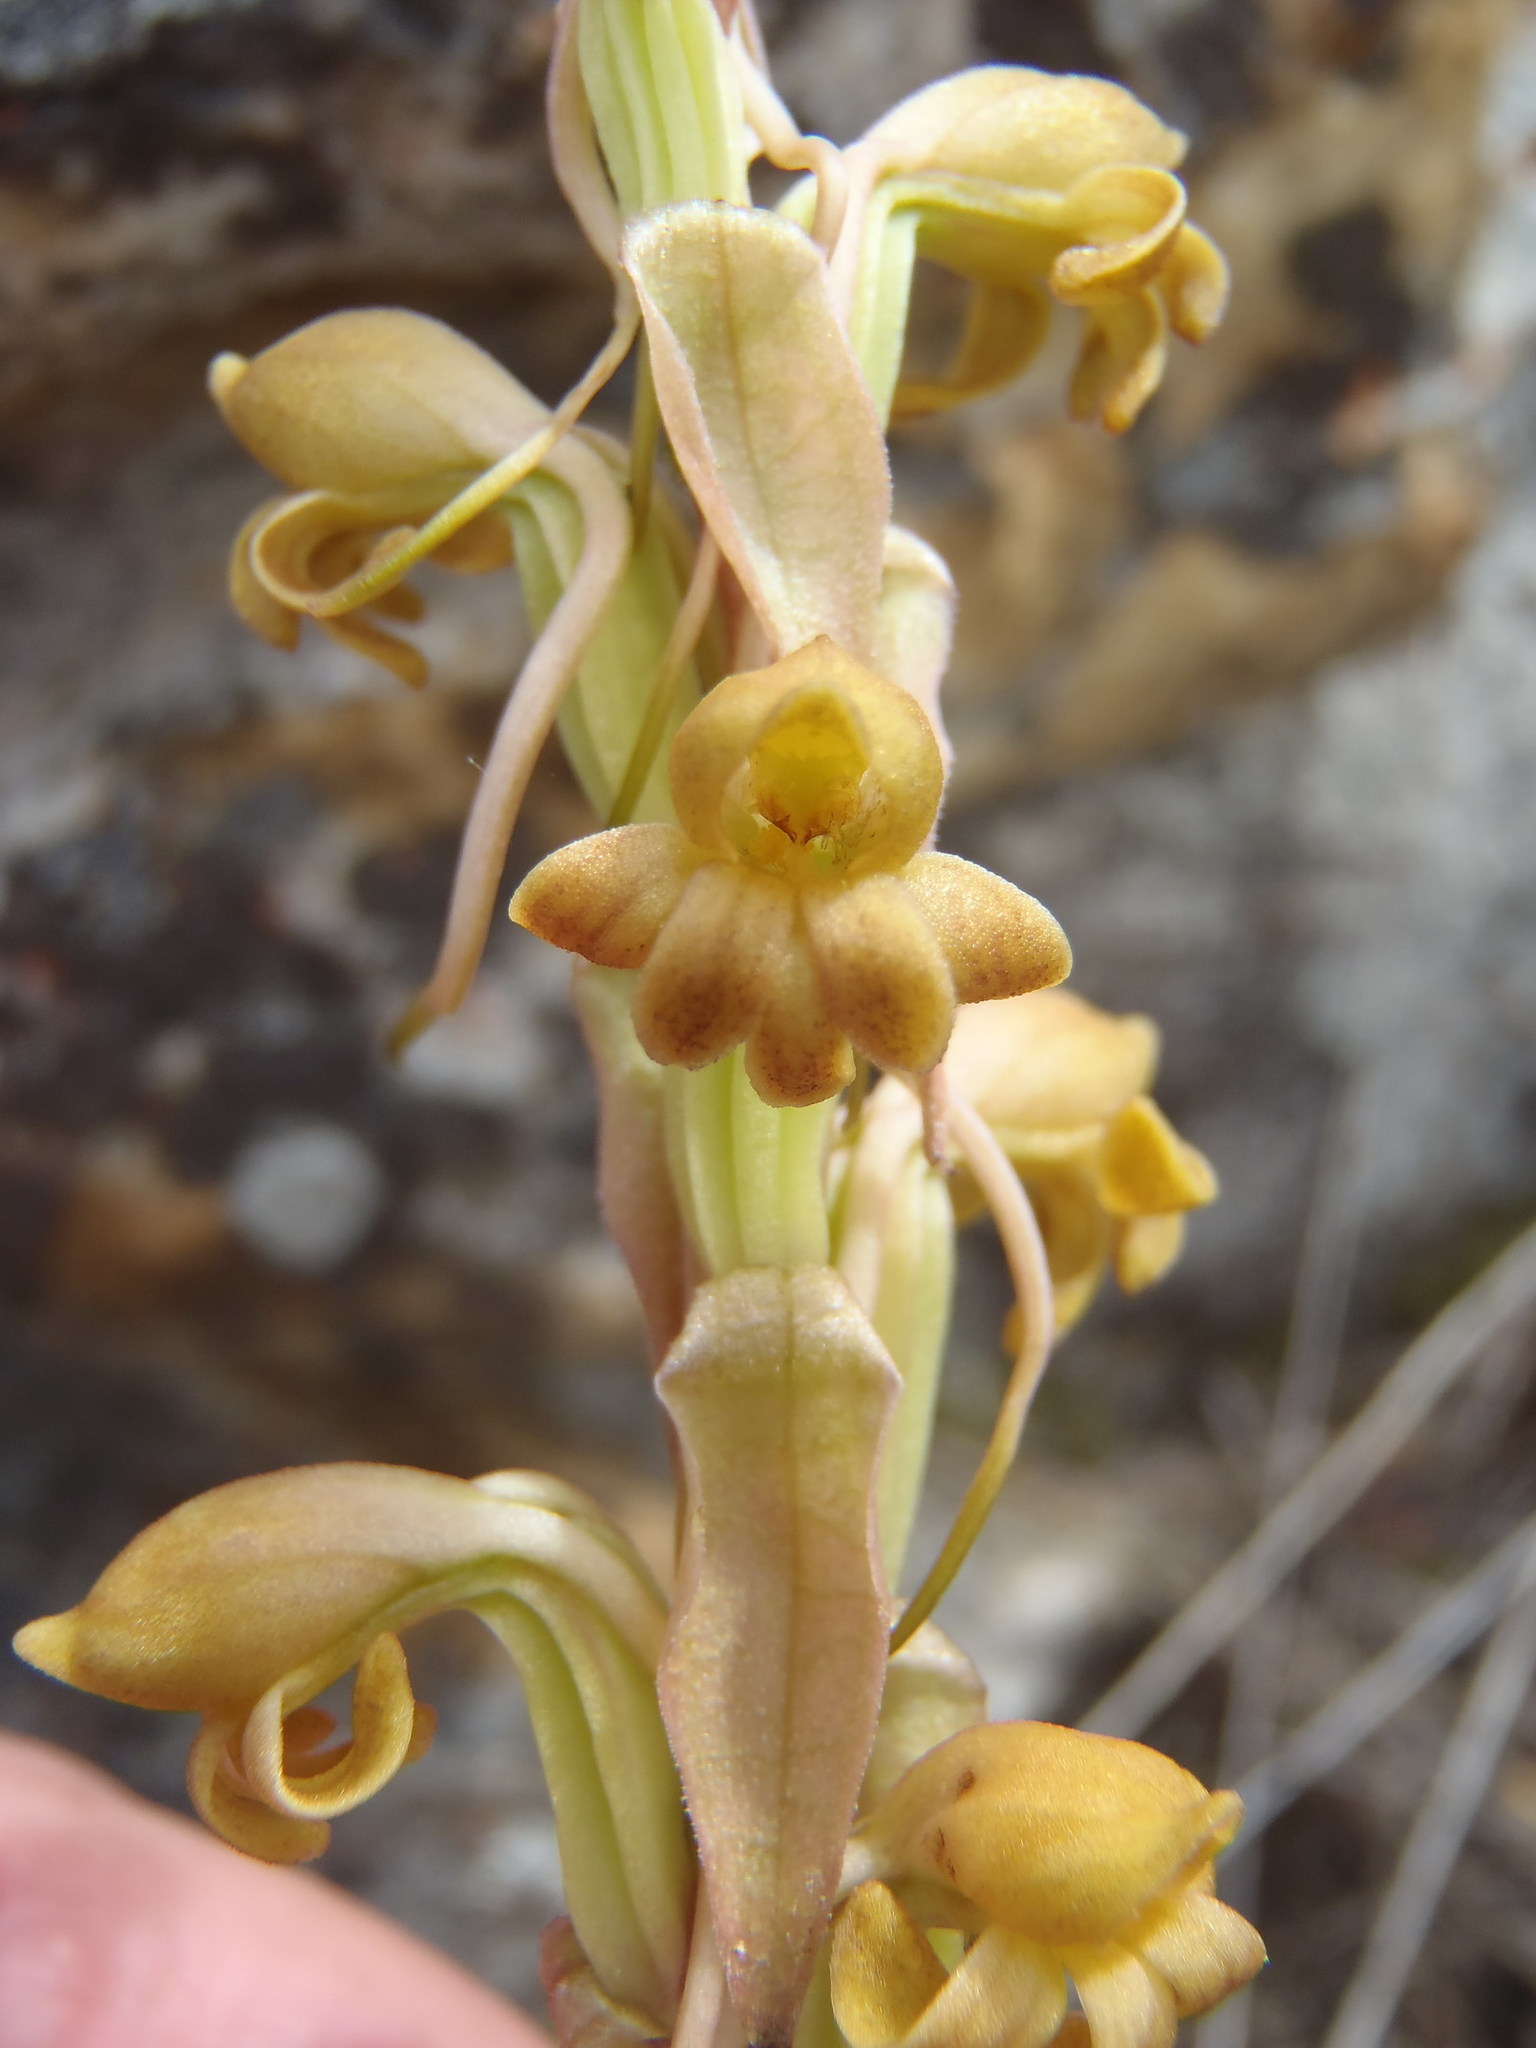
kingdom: Plantae
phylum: Tracheophyta
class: Liliopsida
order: Asparagales
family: Orchidaceae
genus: Satyrium
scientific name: Satyrium bicorne
